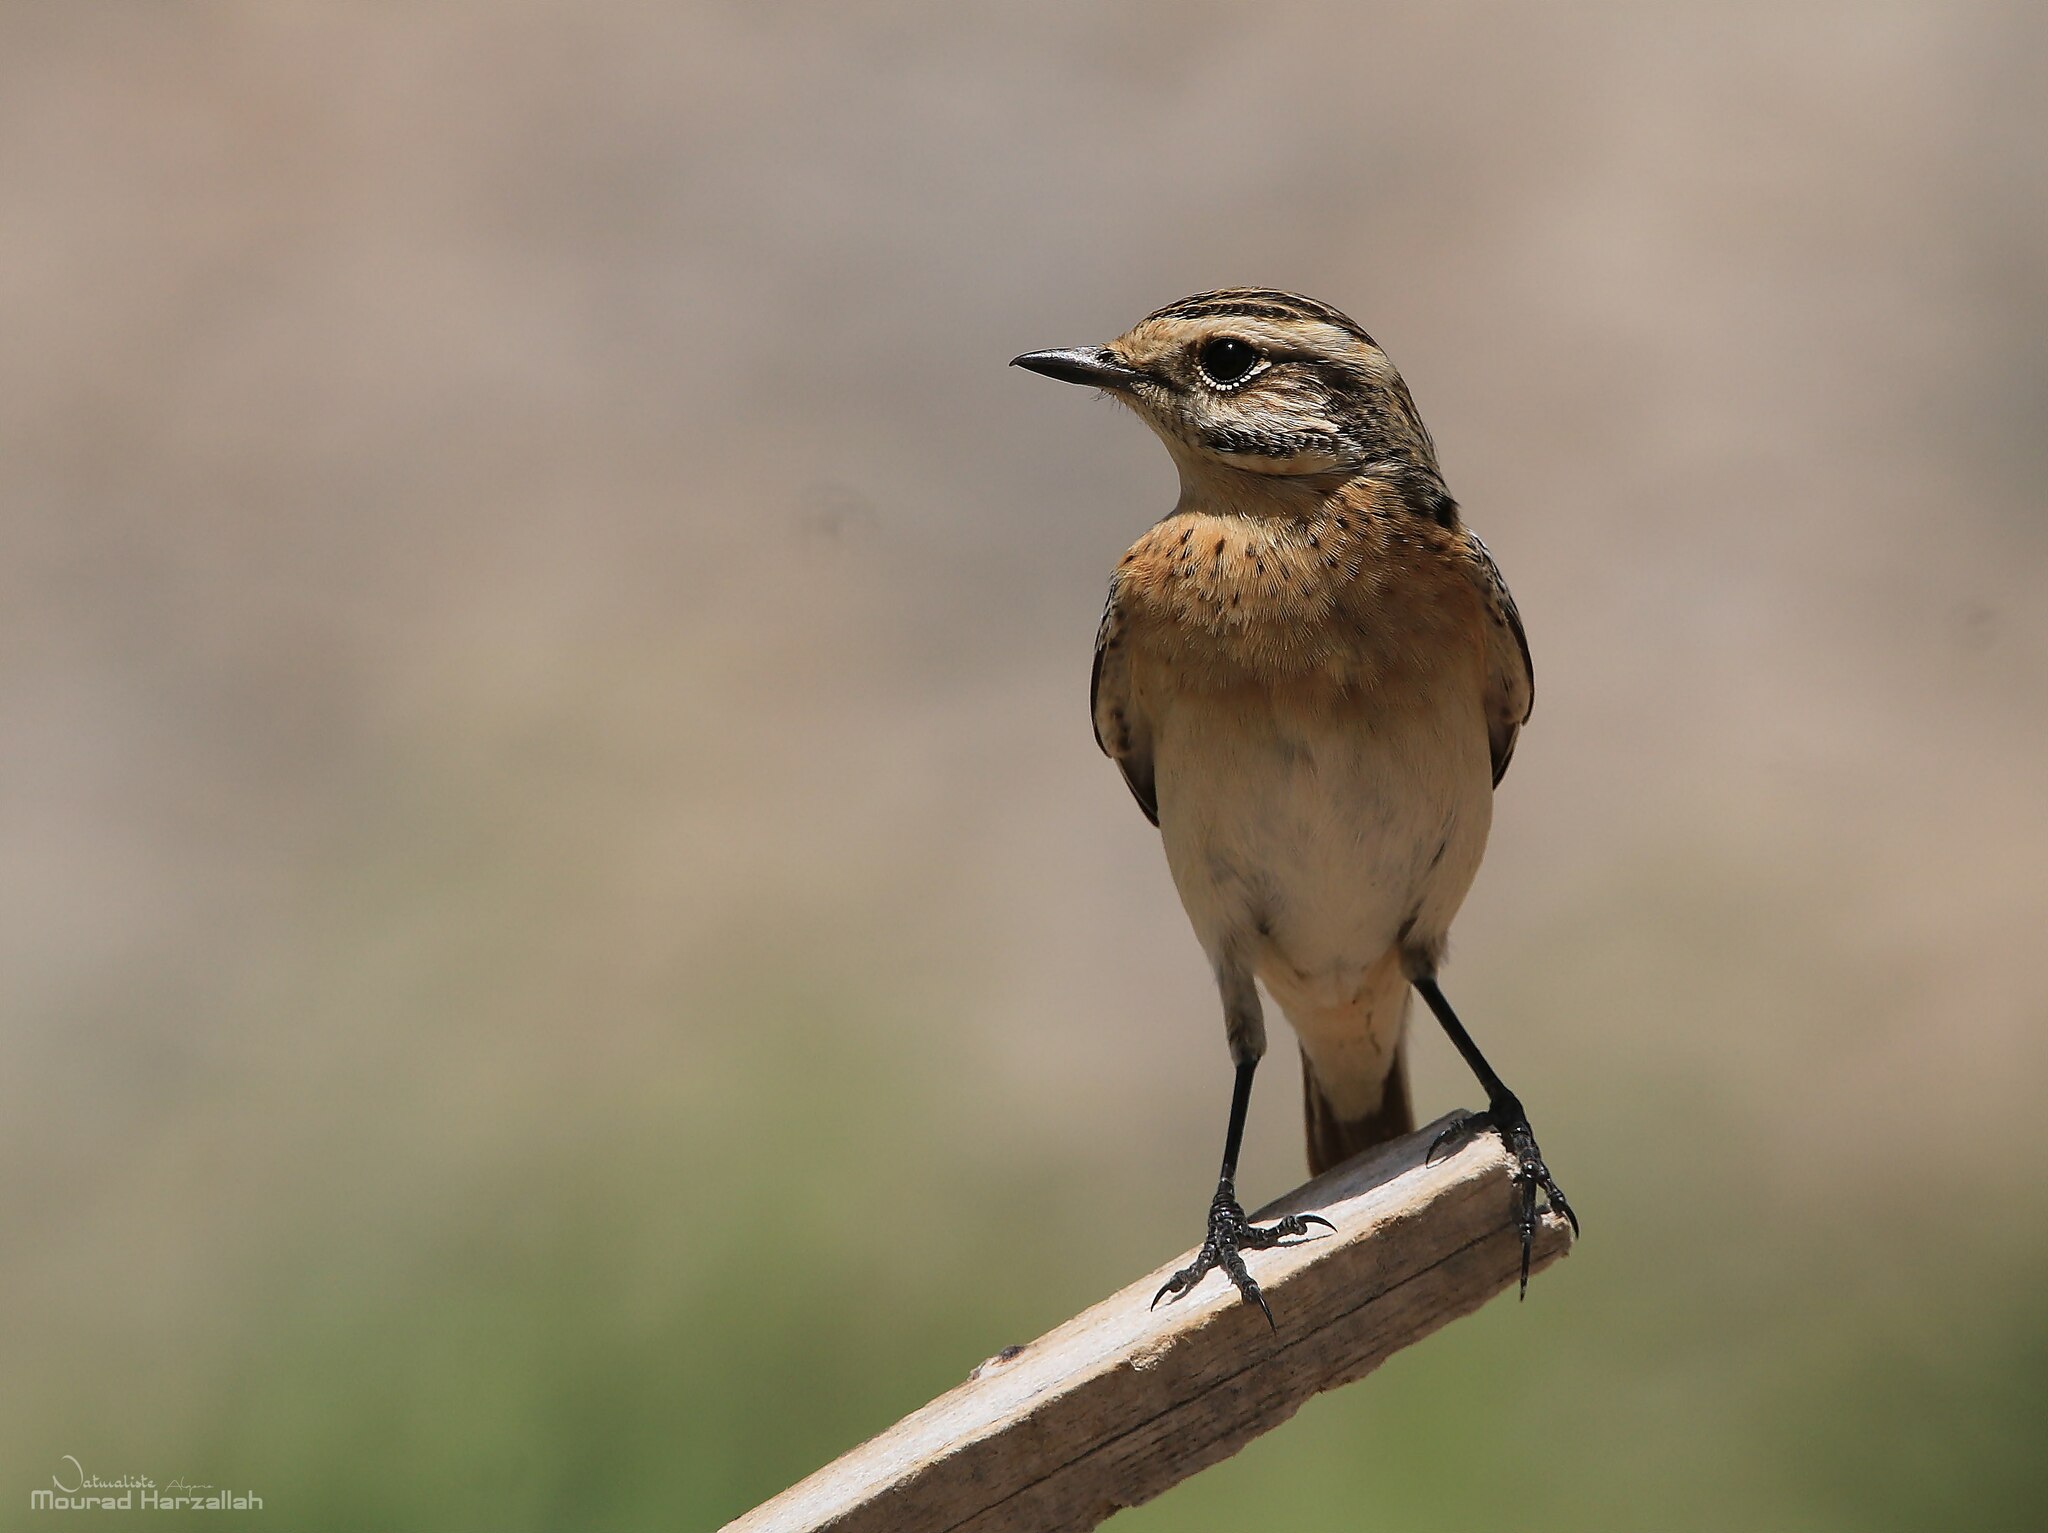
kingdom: Animalia
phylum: Chordata
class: Aves
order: Passeriformes
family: Muscicapidae
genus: Saxicola
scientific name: Saxicola rubetra
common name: Whinchat
